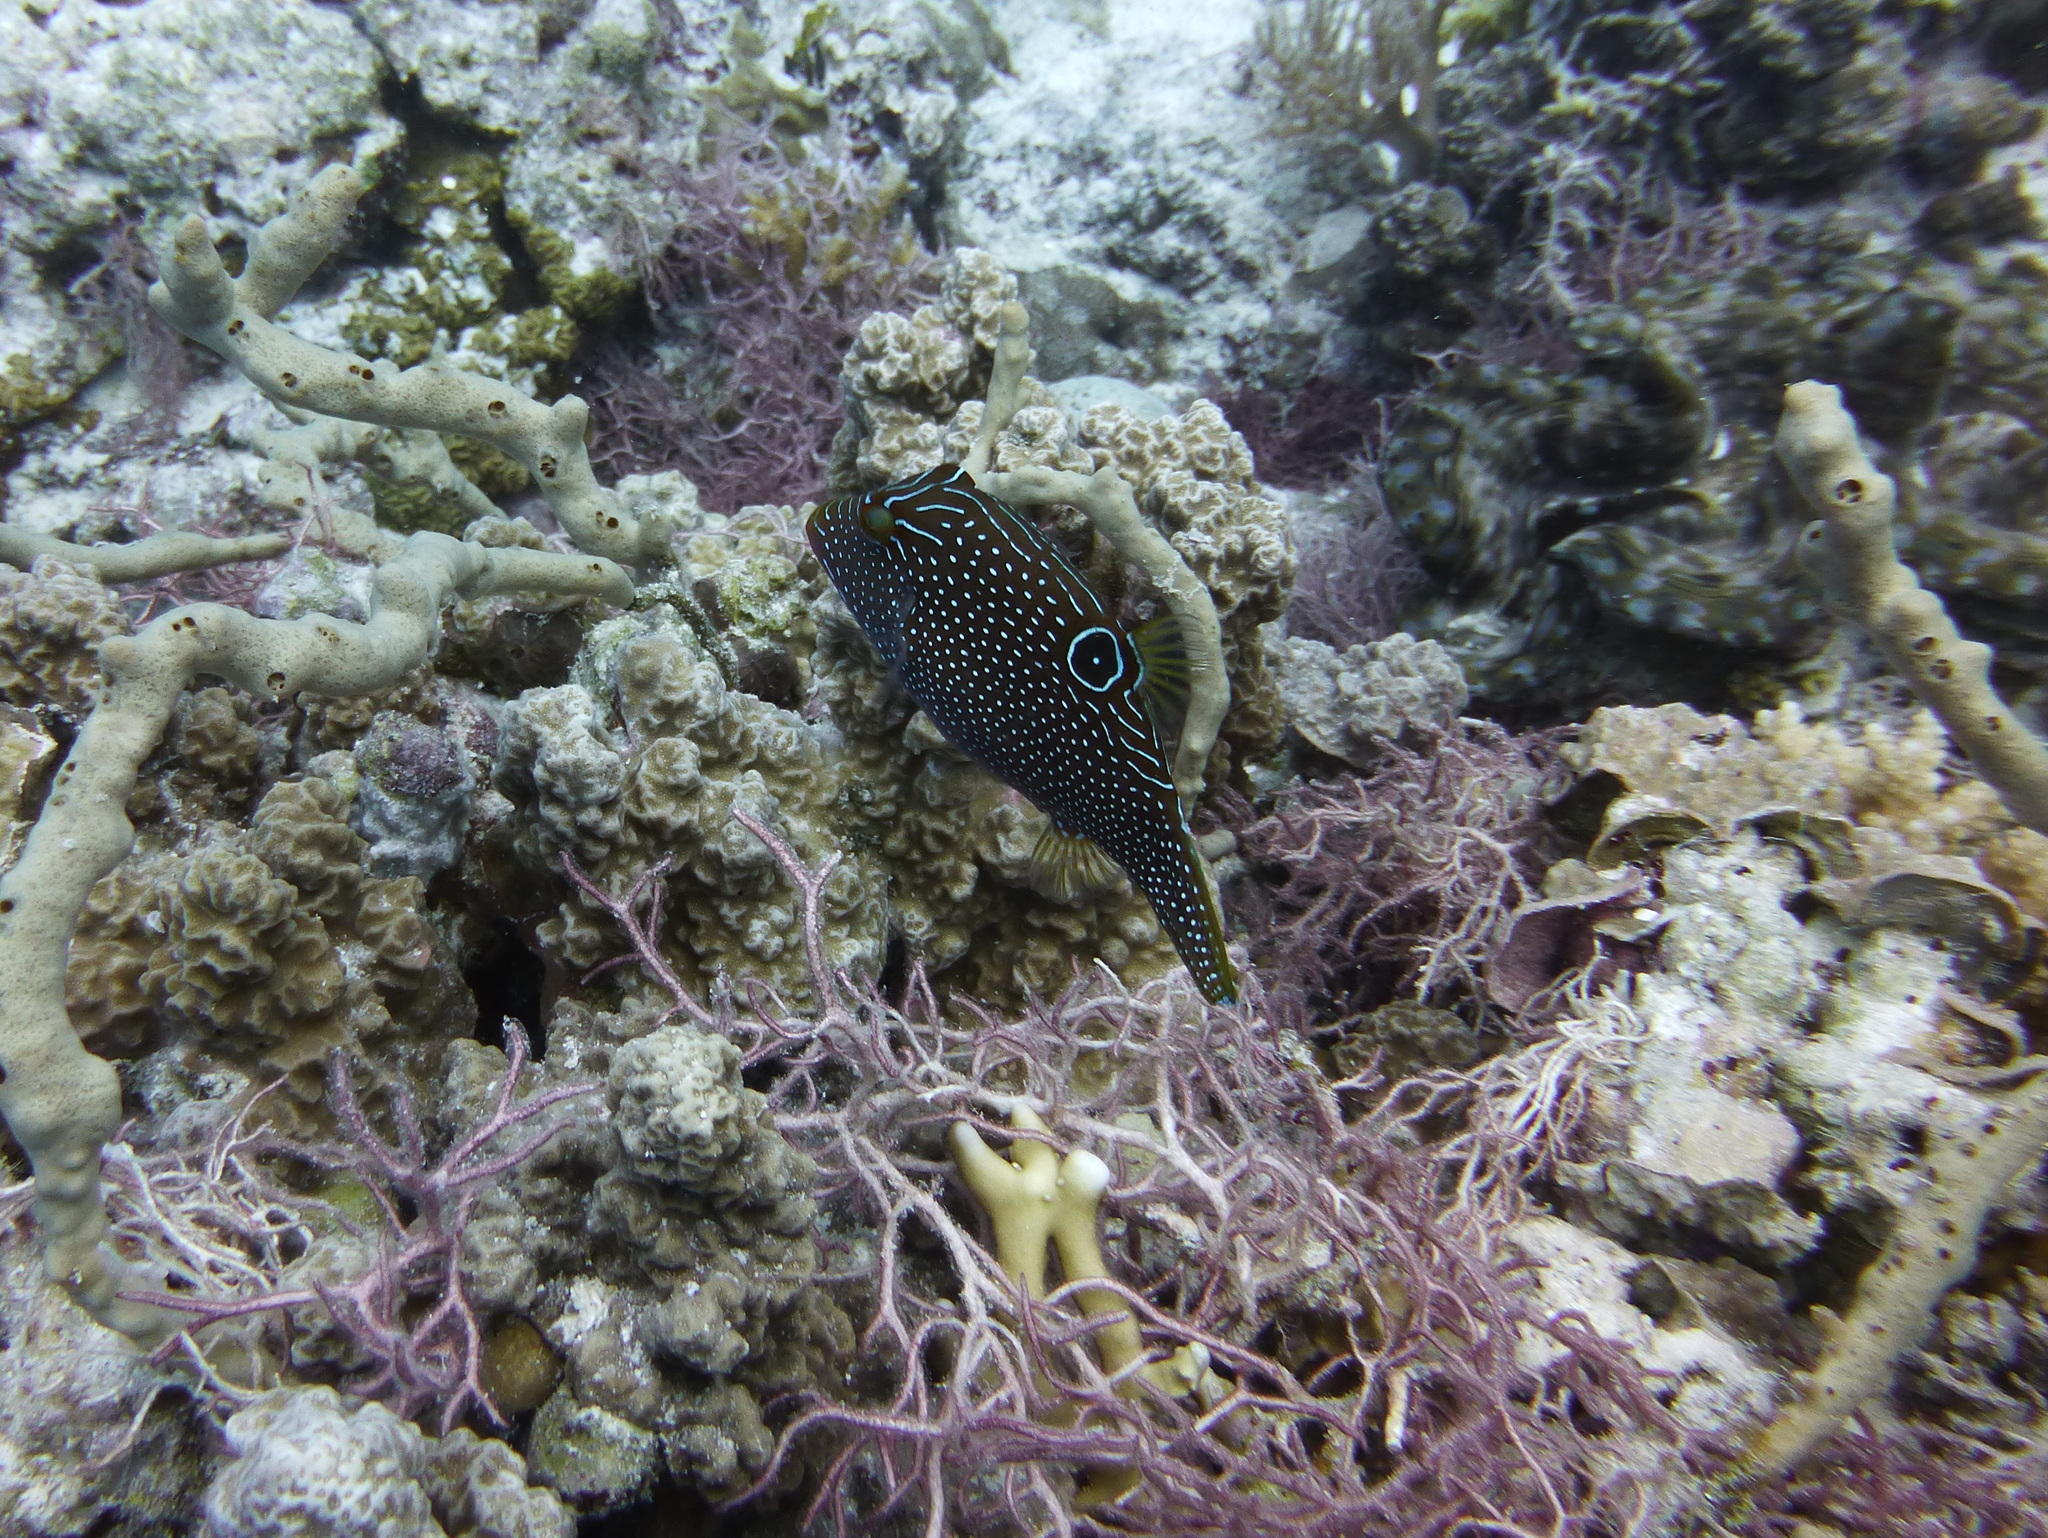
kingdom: Animalia
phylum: Chordata
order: Tetraodontiformes
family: Tetraodontidae
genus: Canthigaster
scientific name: Canthigaster papua
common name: False-eyed pufferfish
